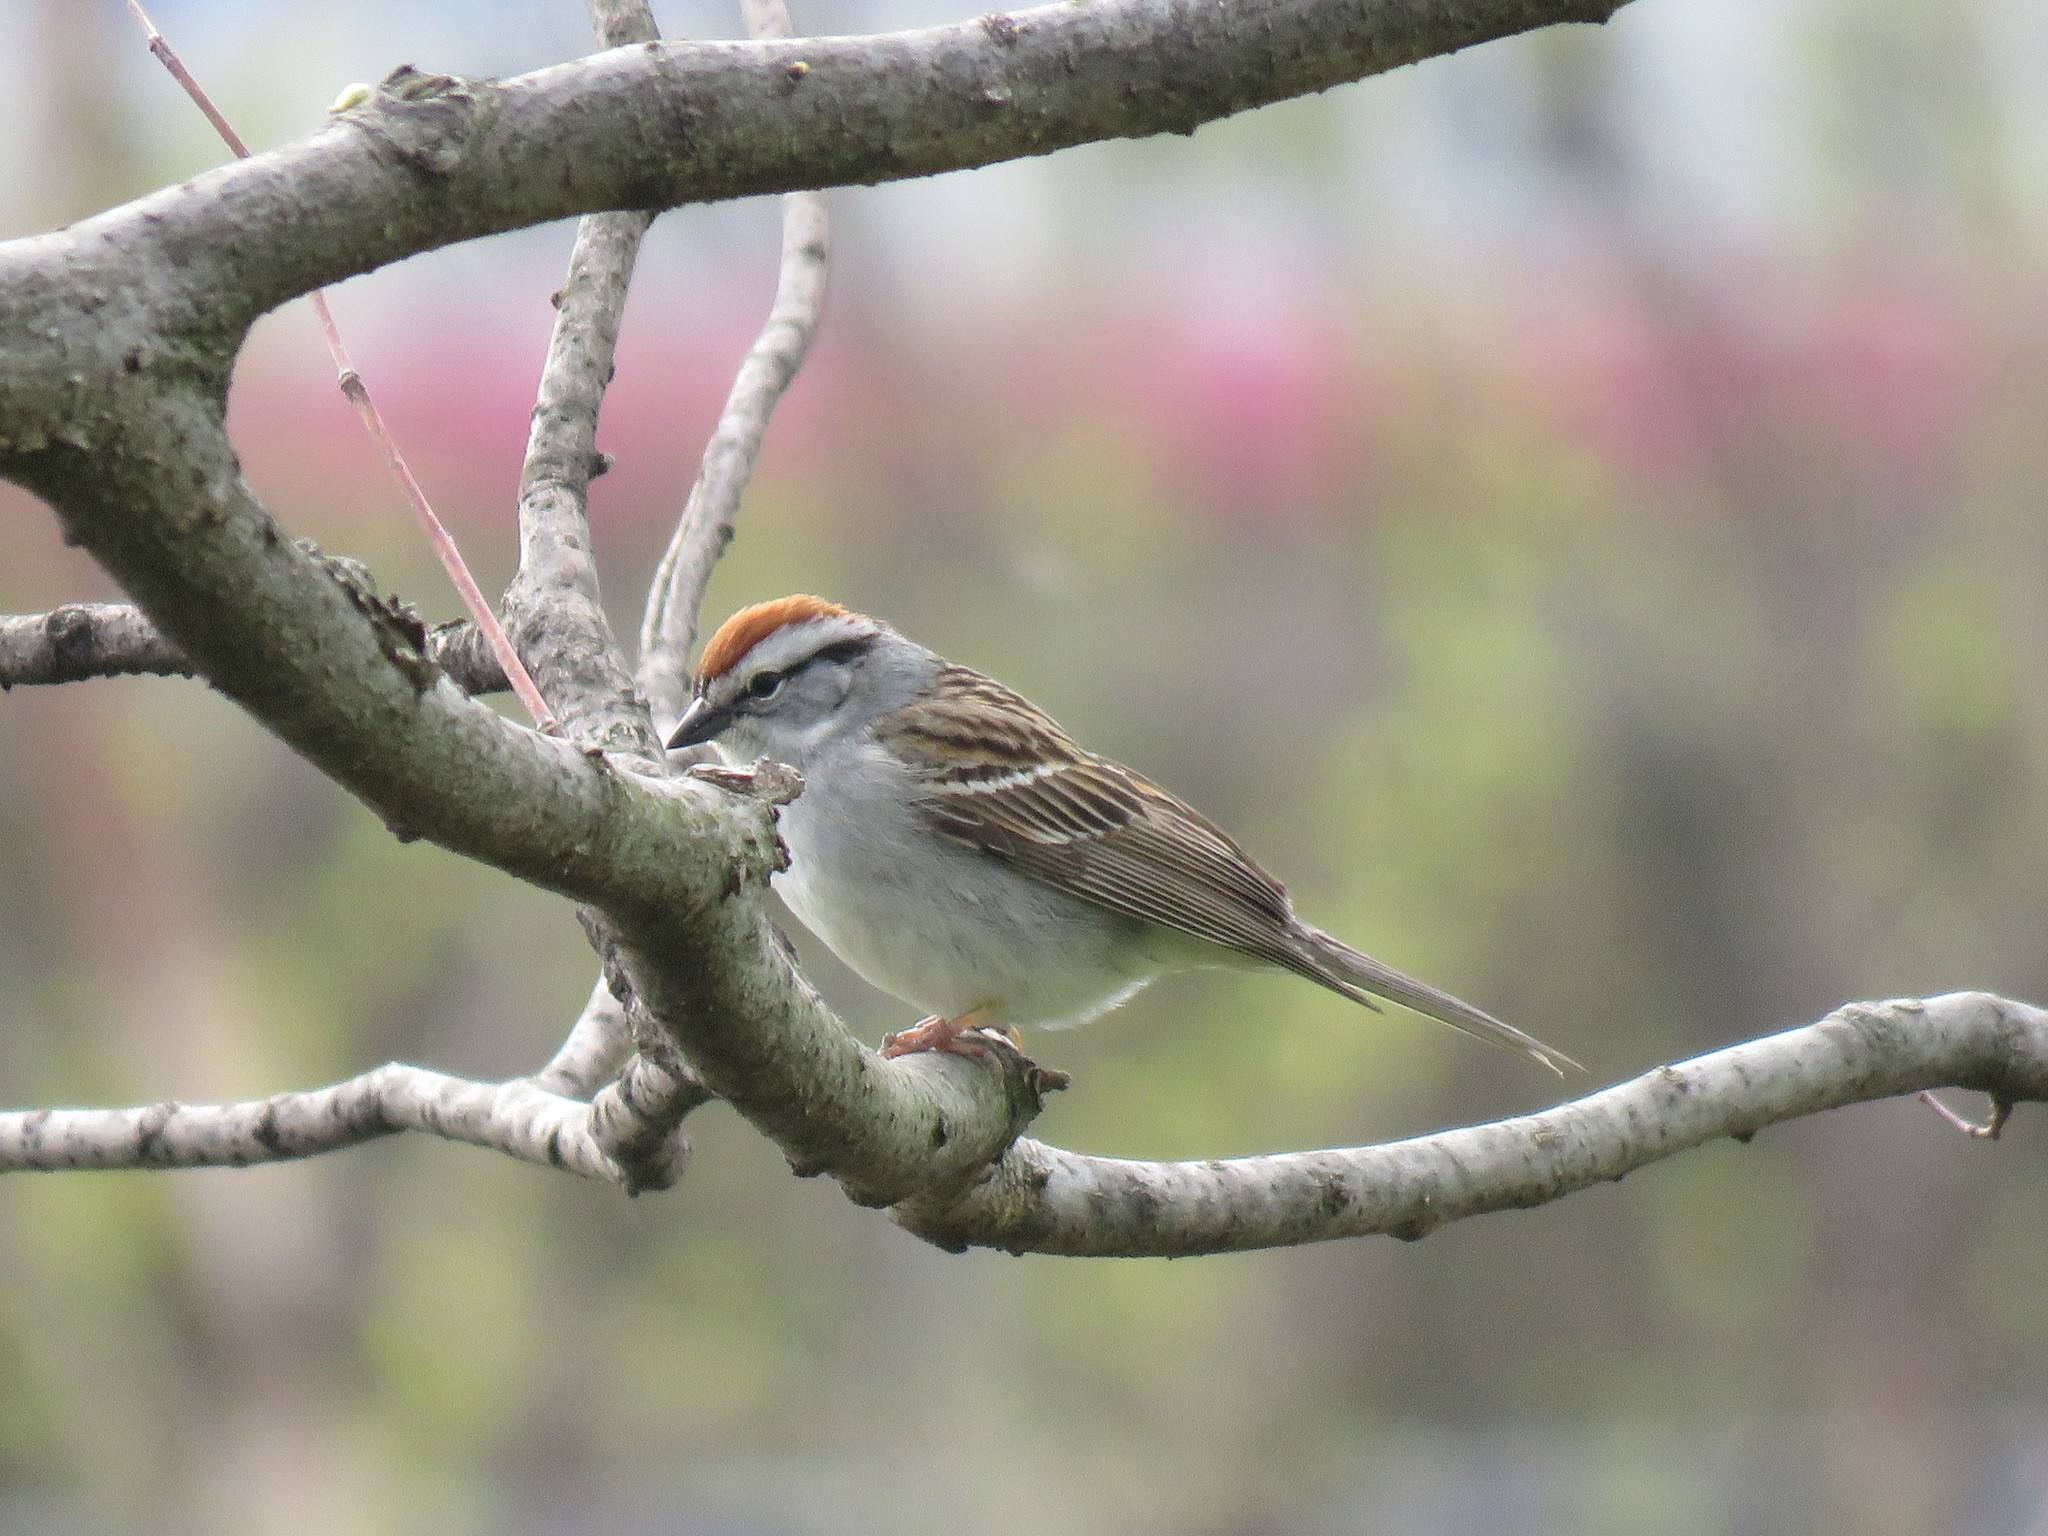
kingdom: Animalia
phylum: Chordata
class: Aves
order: Passeriformes
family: Passerellidae
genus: Spizella
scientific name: Spizella passerina
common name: Chipping sparrow
